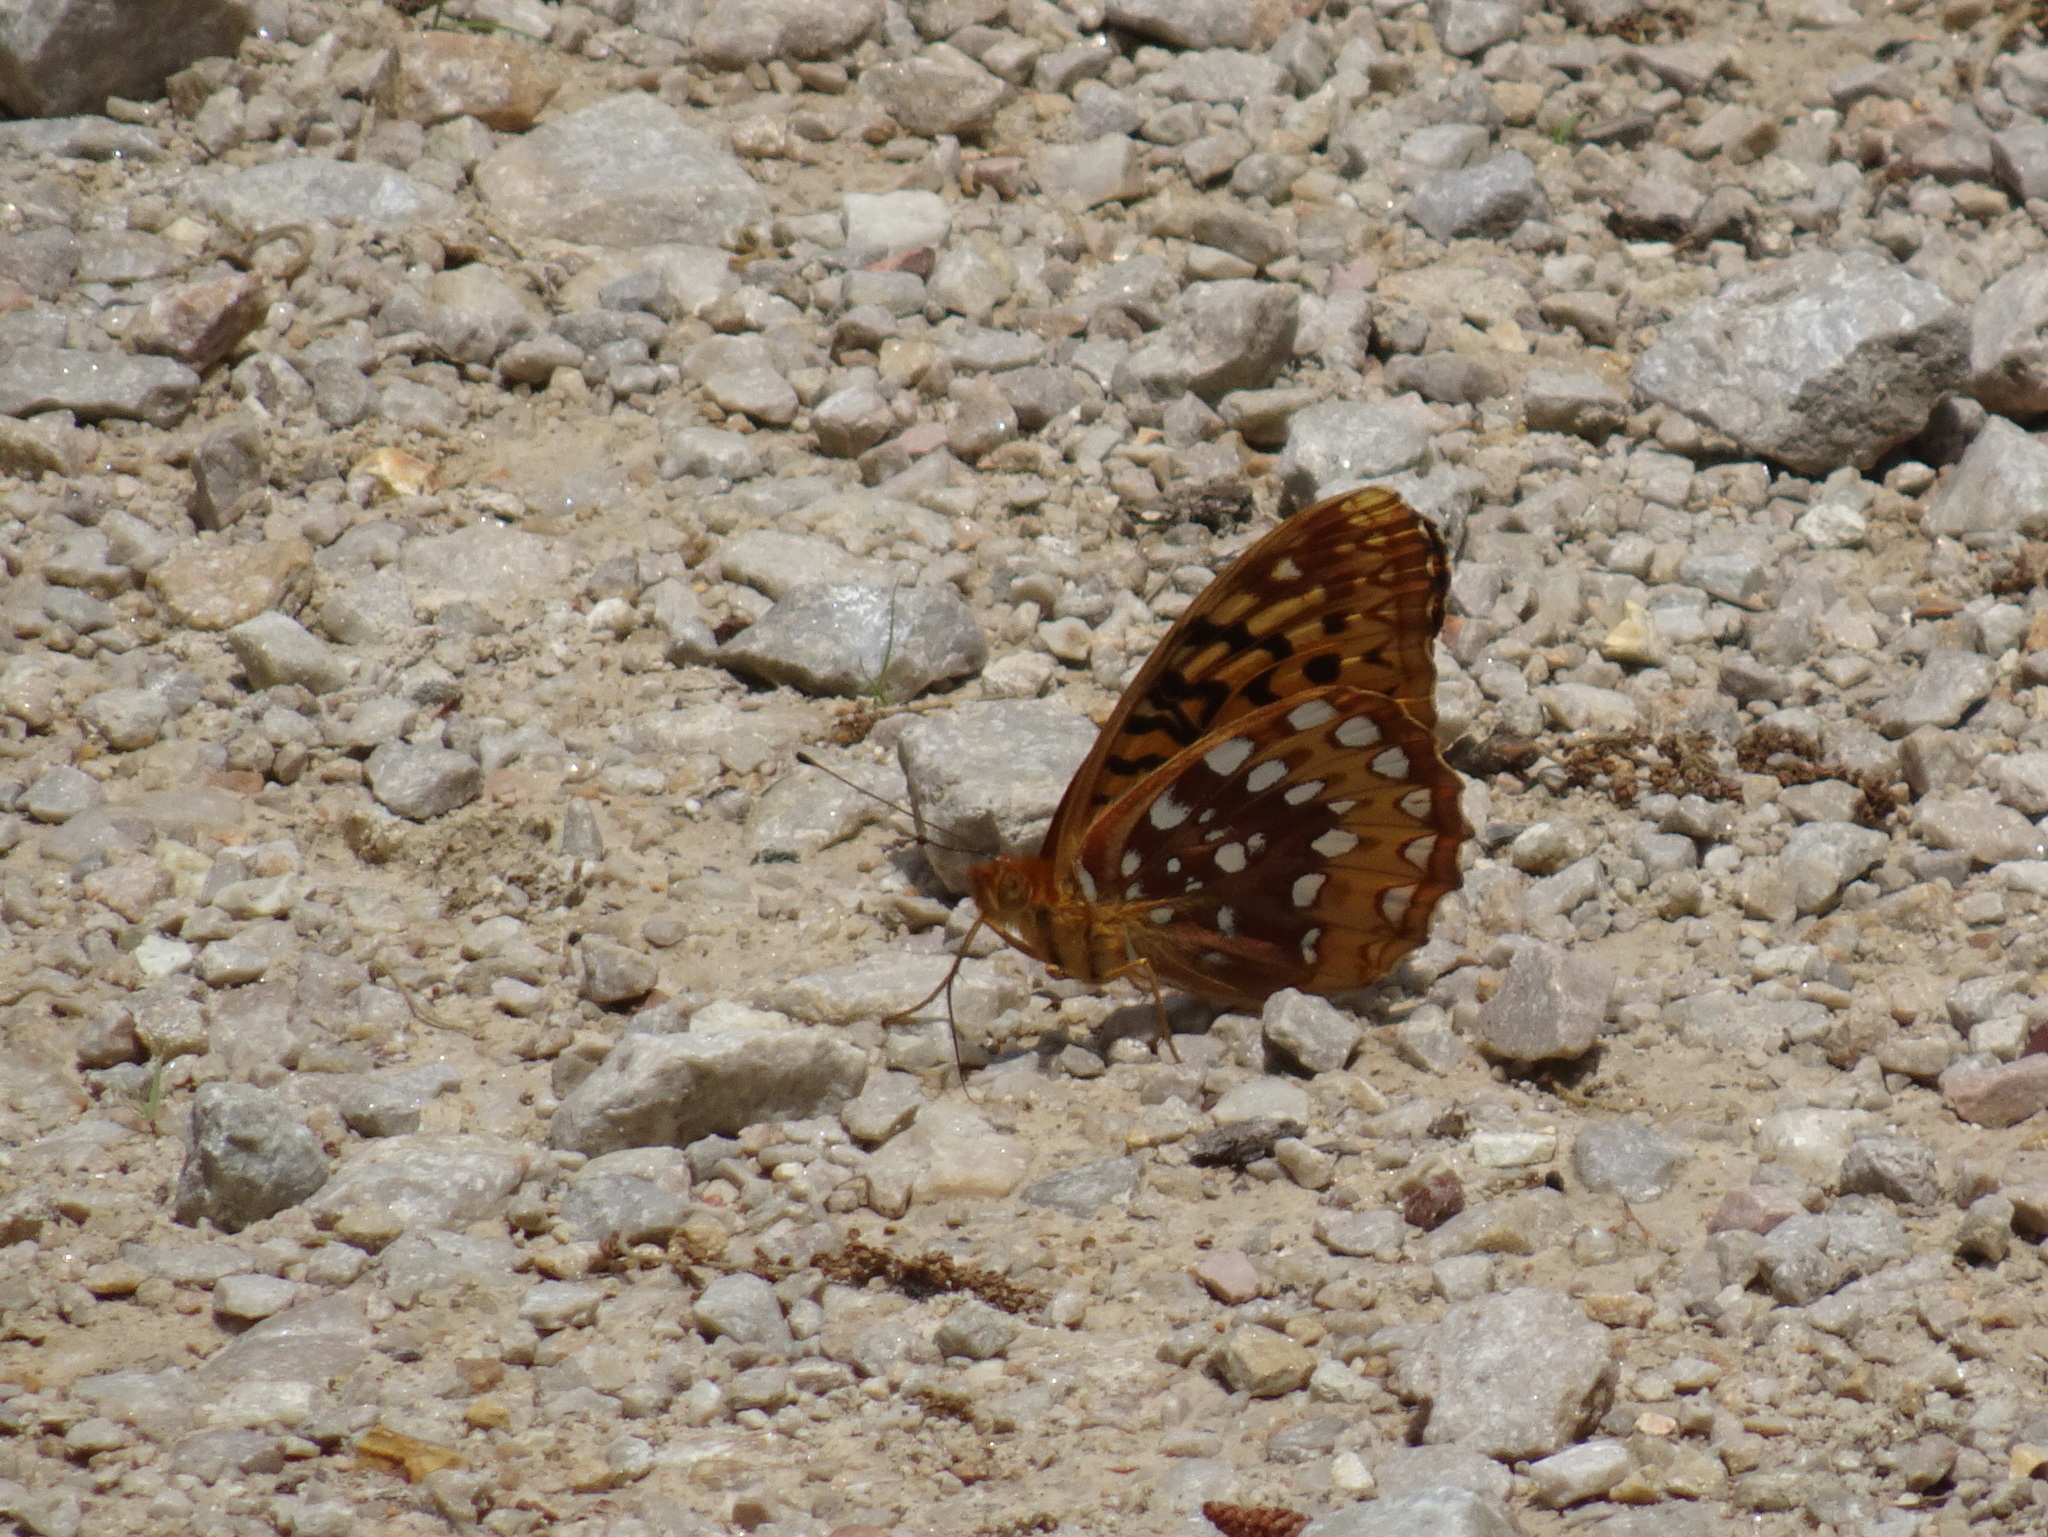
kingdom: Animalia
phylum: Arthropoda
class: Insecta
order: Lepidoptera
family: Nymphalidae
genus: Speyeria
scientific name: Speyeria cybele
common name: Great spangled fritillary
